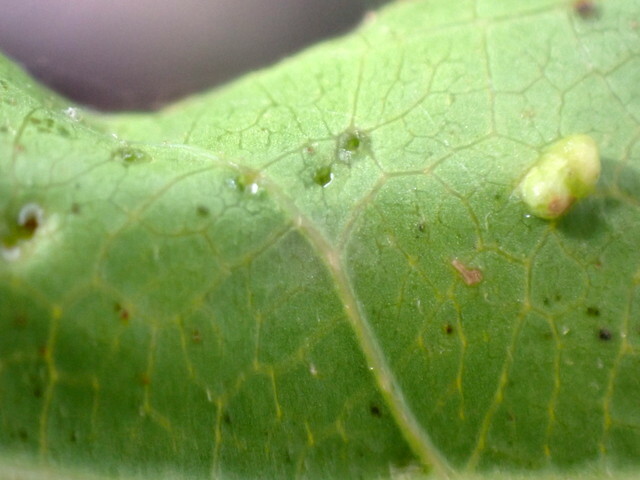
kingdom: Animalia
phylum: Arthropoda
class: Insecta
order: Hemiptera
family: Diaspididae
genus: Diaspidiotus
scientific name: Diaspidiotus liquidambaris
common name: Sweet gum scale
